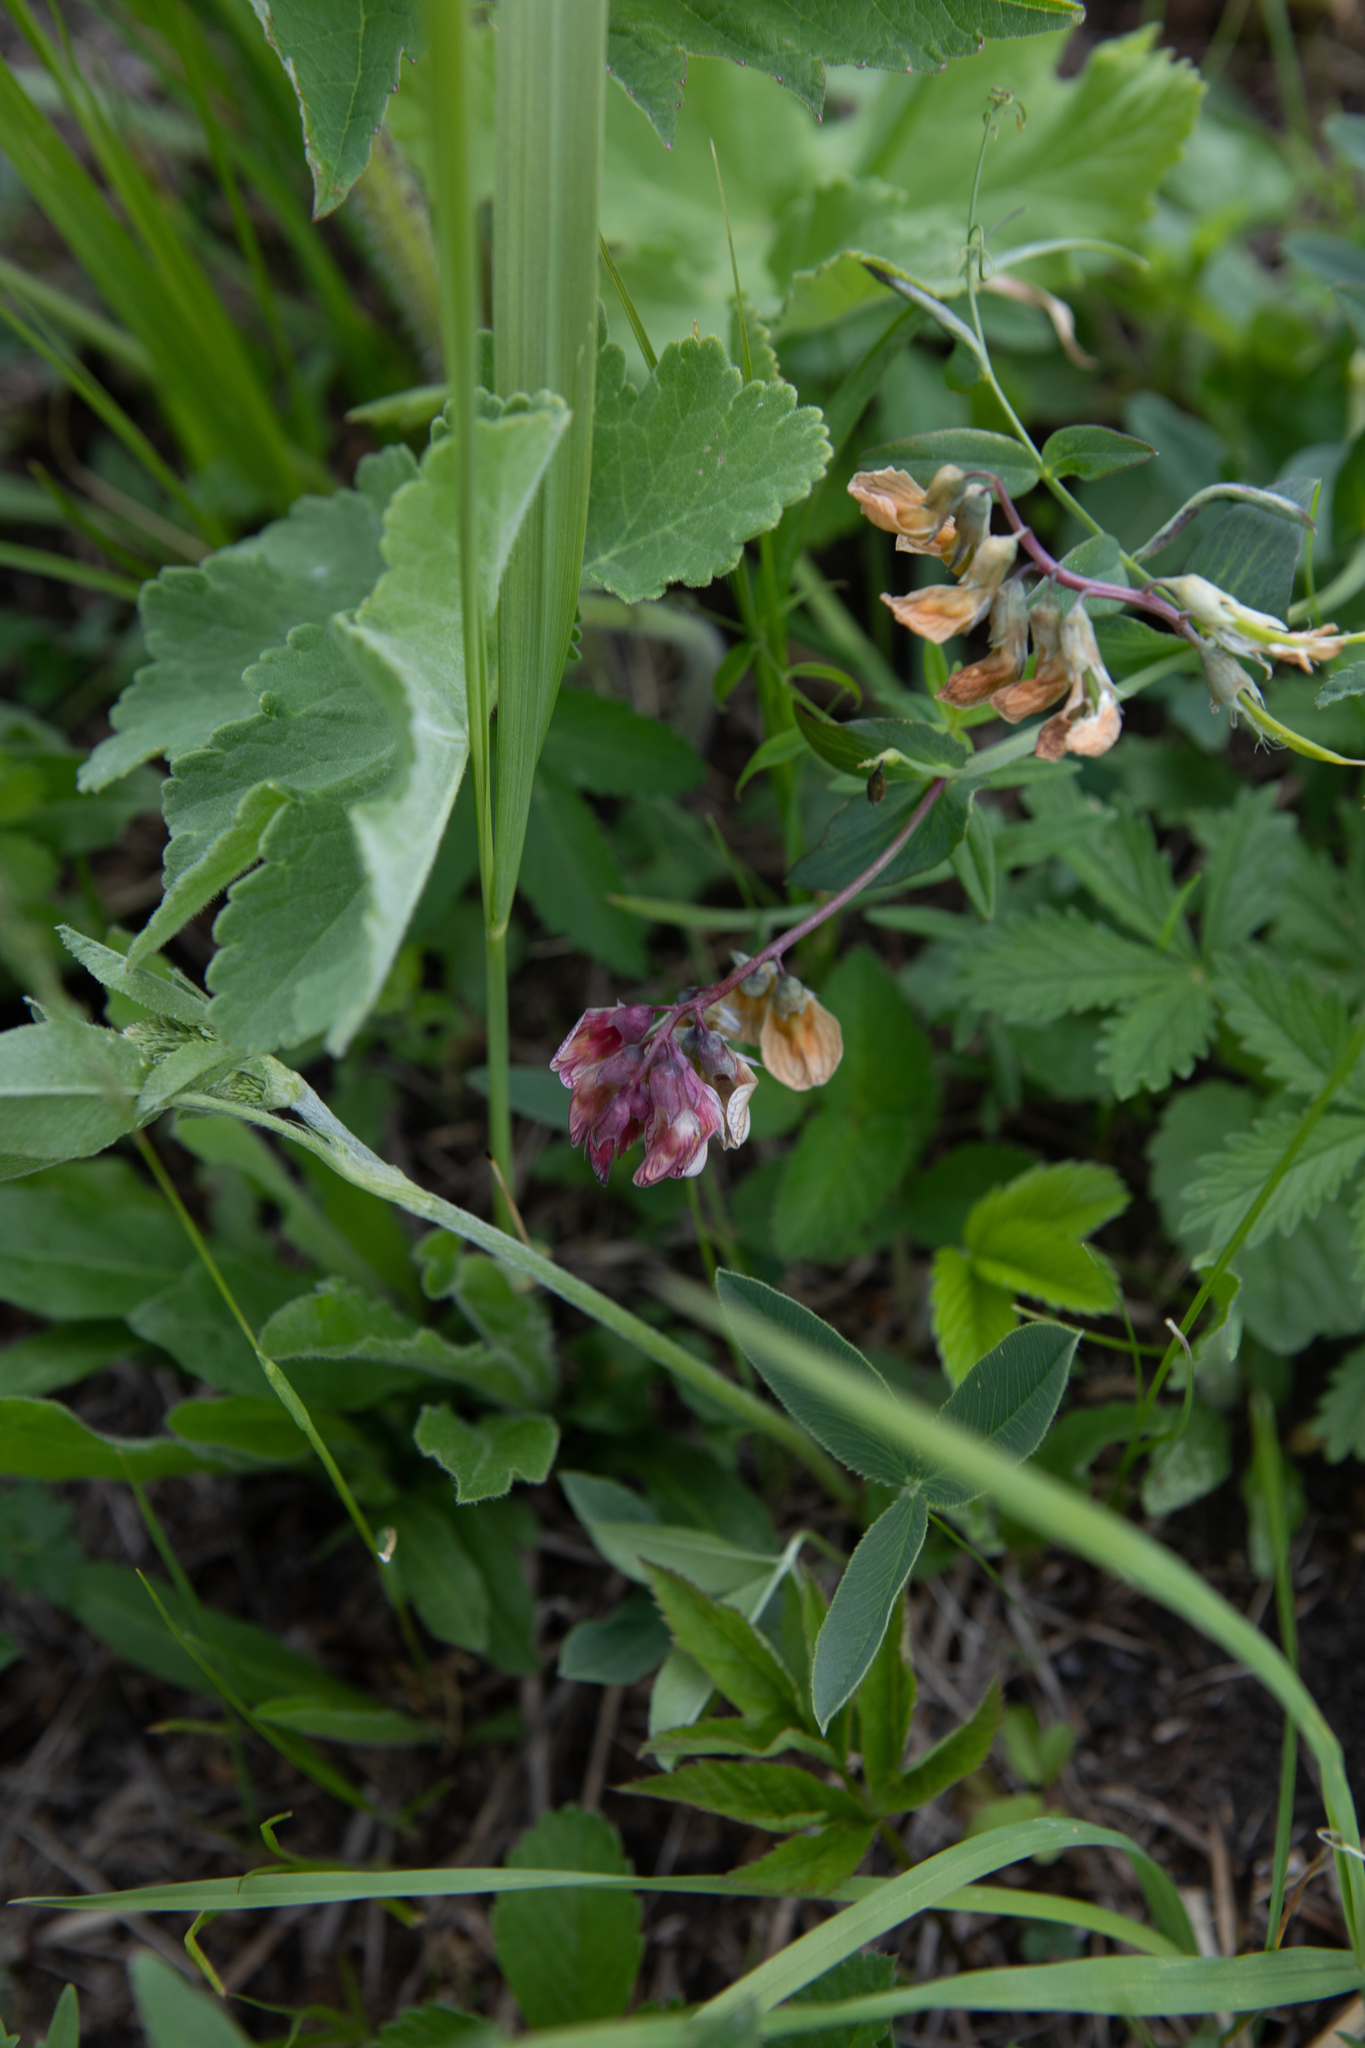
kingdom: Plantae
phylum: Tracheophyta
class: Magnoliopsida
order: Fabales
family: Fabaceae
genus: Lathyrus
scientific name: Lathyrus pisiformis
